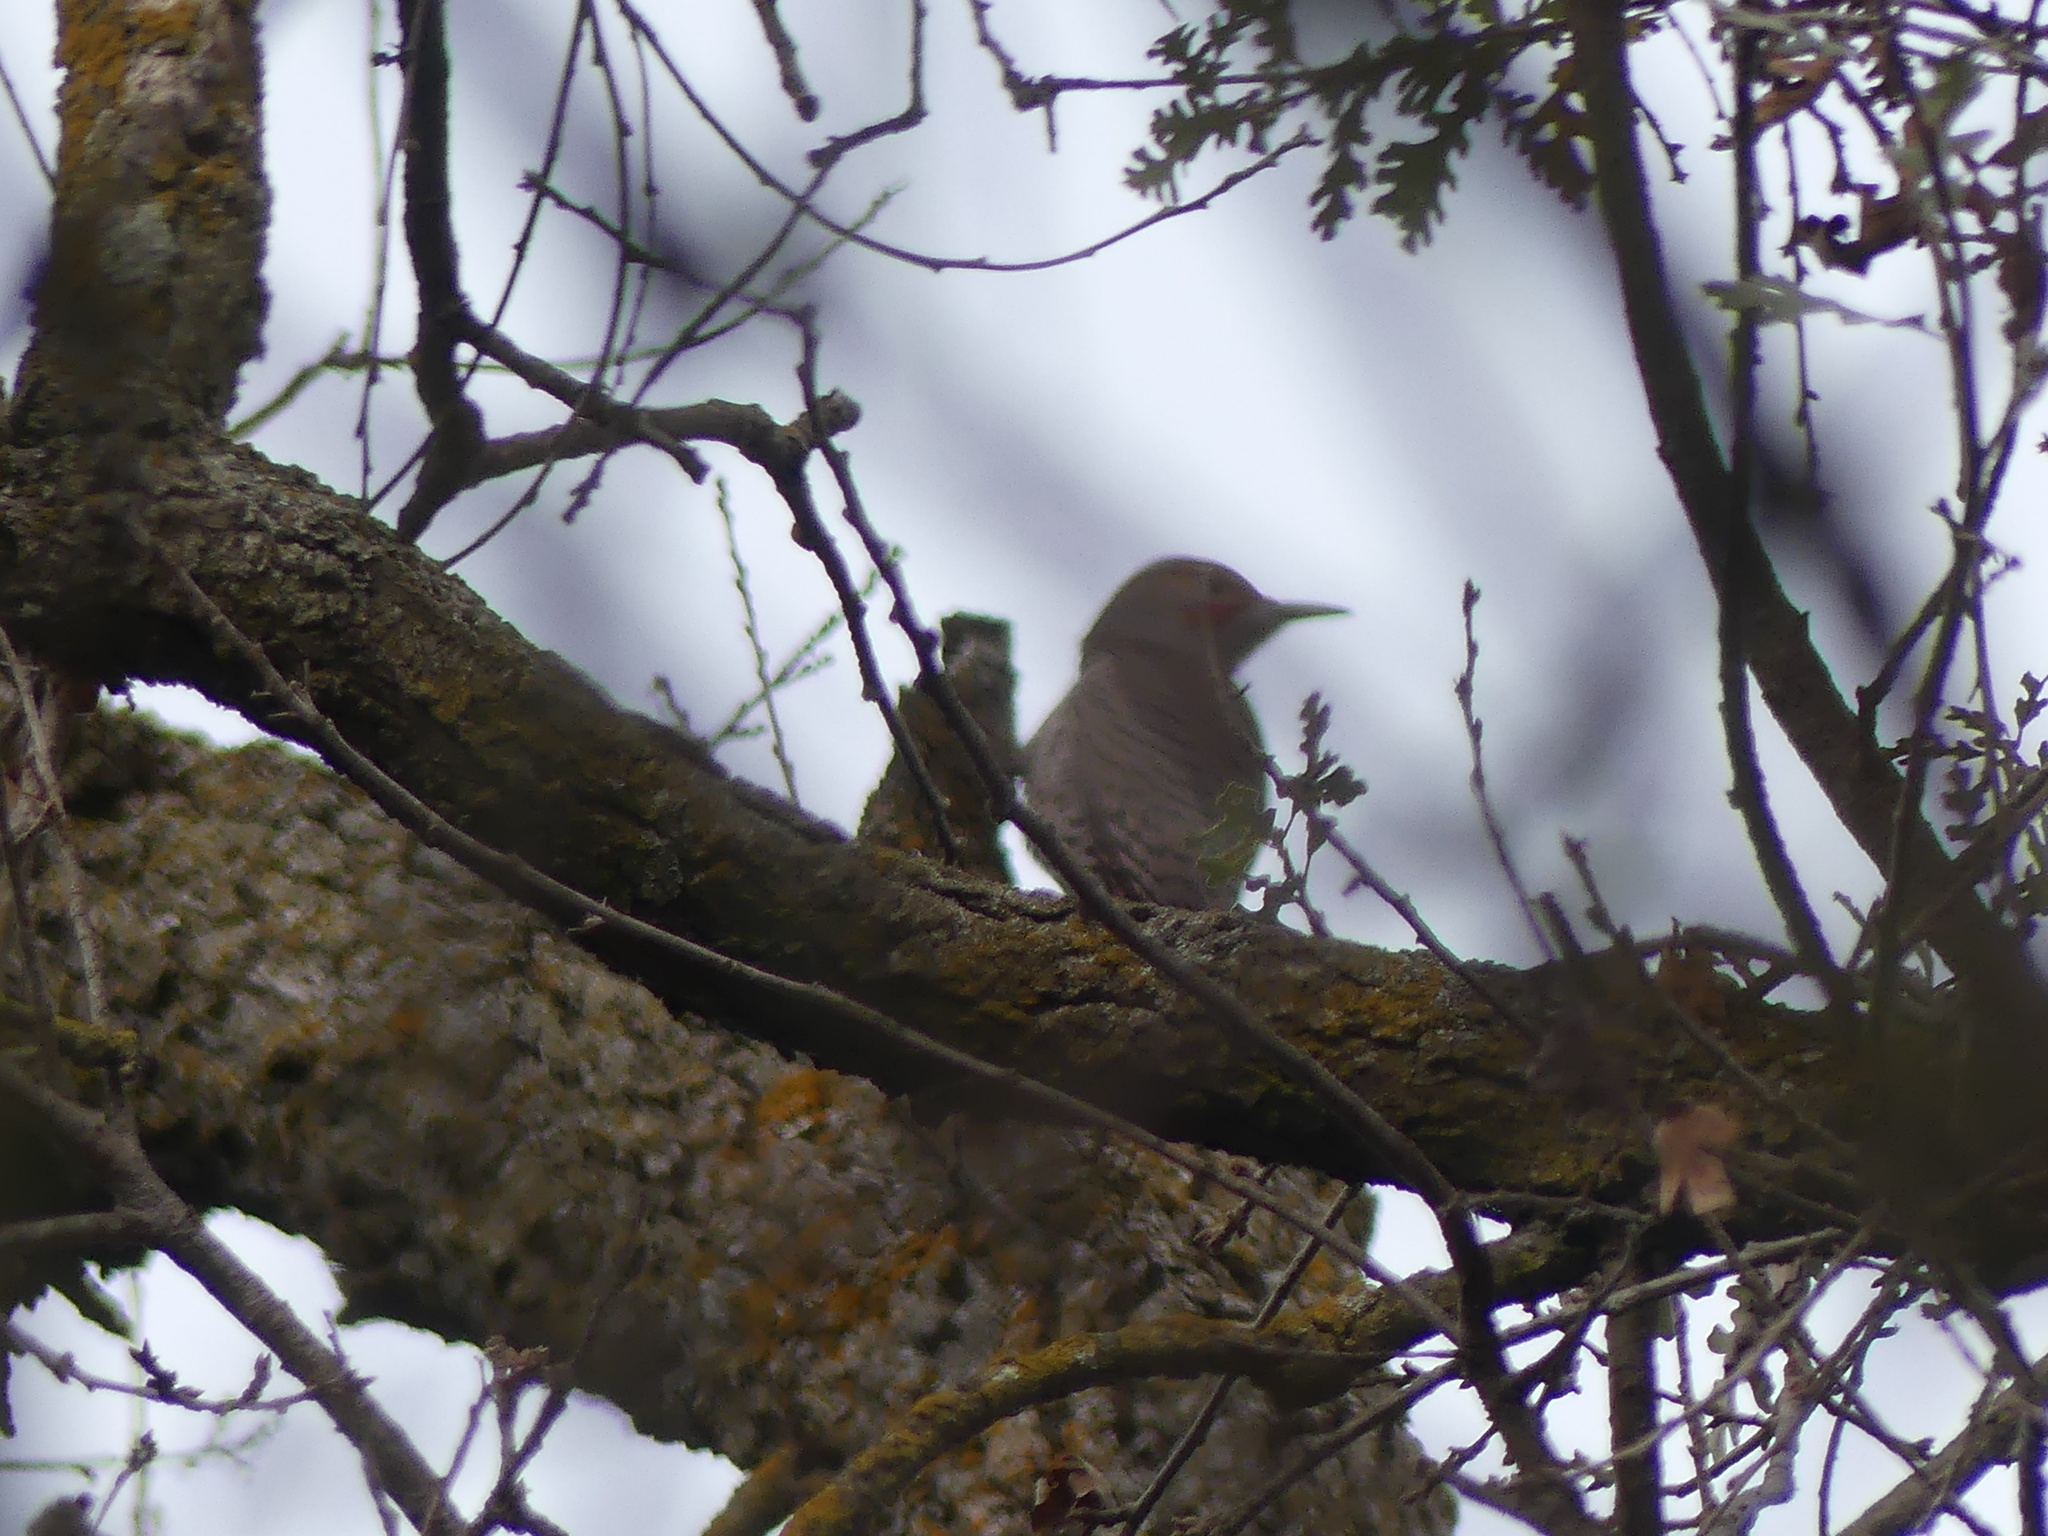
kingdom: Animalia
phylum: Chordata
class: Aves
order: Piciformes
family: Picidae
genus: Colaptes
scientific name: Colaptes auratus
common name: Northern flicker
